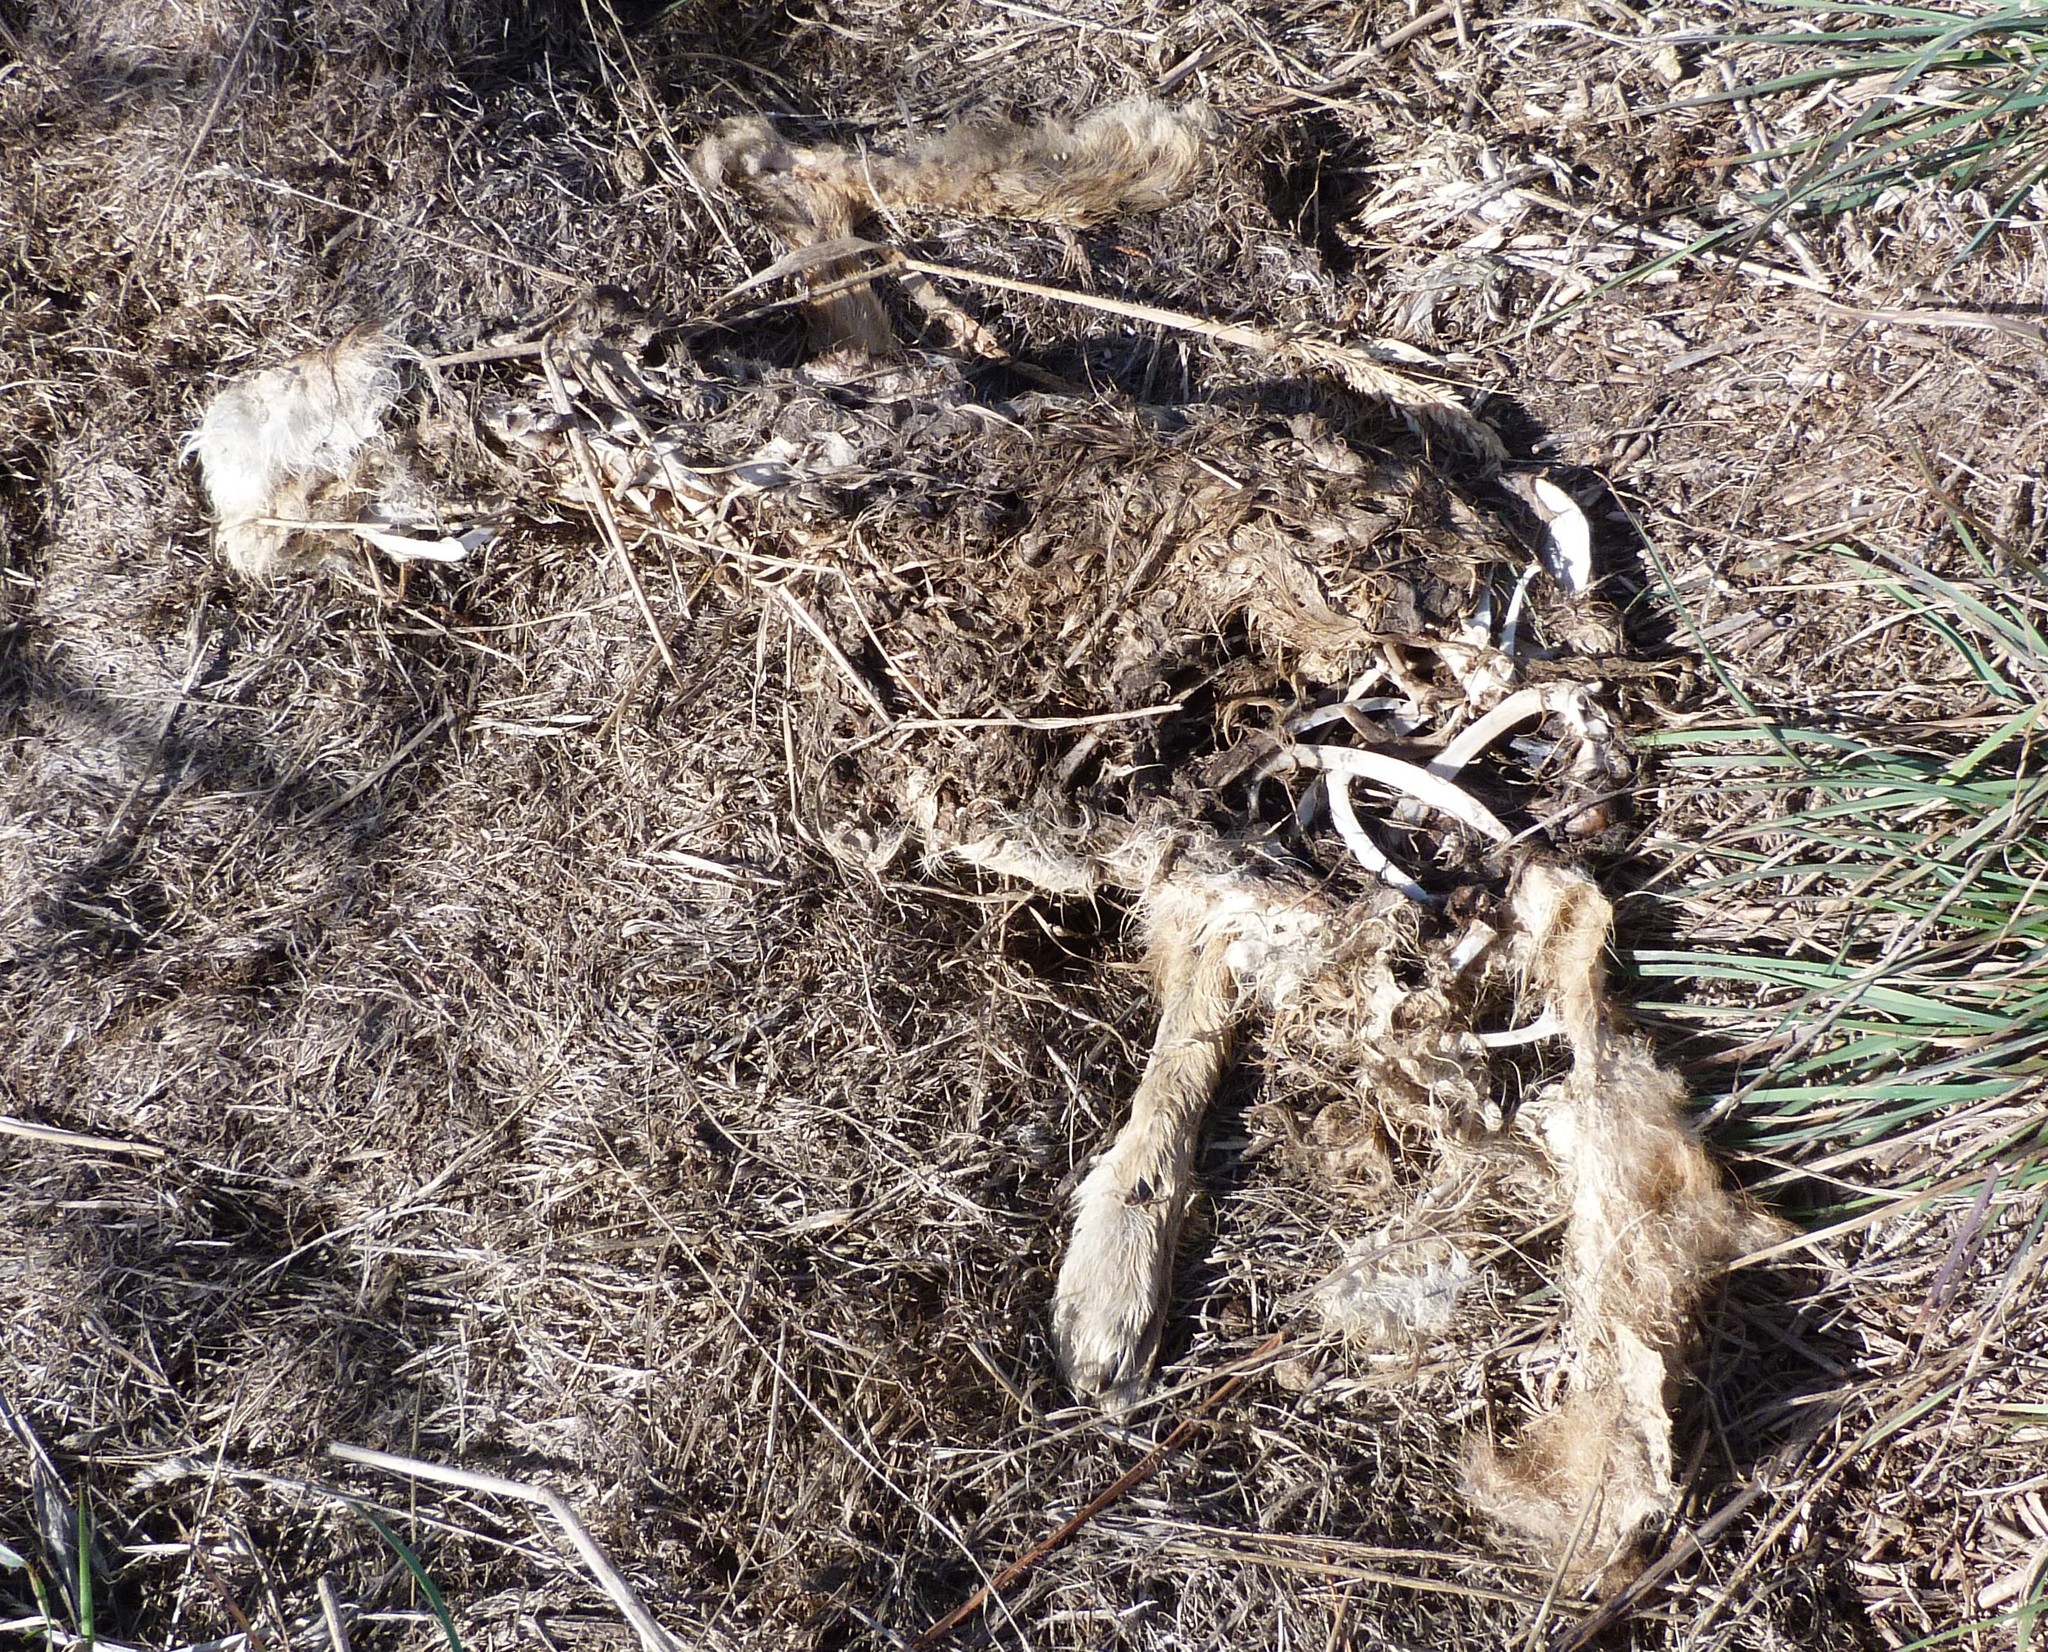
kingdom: Animalia
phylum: Chordata
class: Mammalia
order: Lagomorpha
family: Leporidae
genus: Lepus
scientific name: Lepus europaeus
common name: European hare
